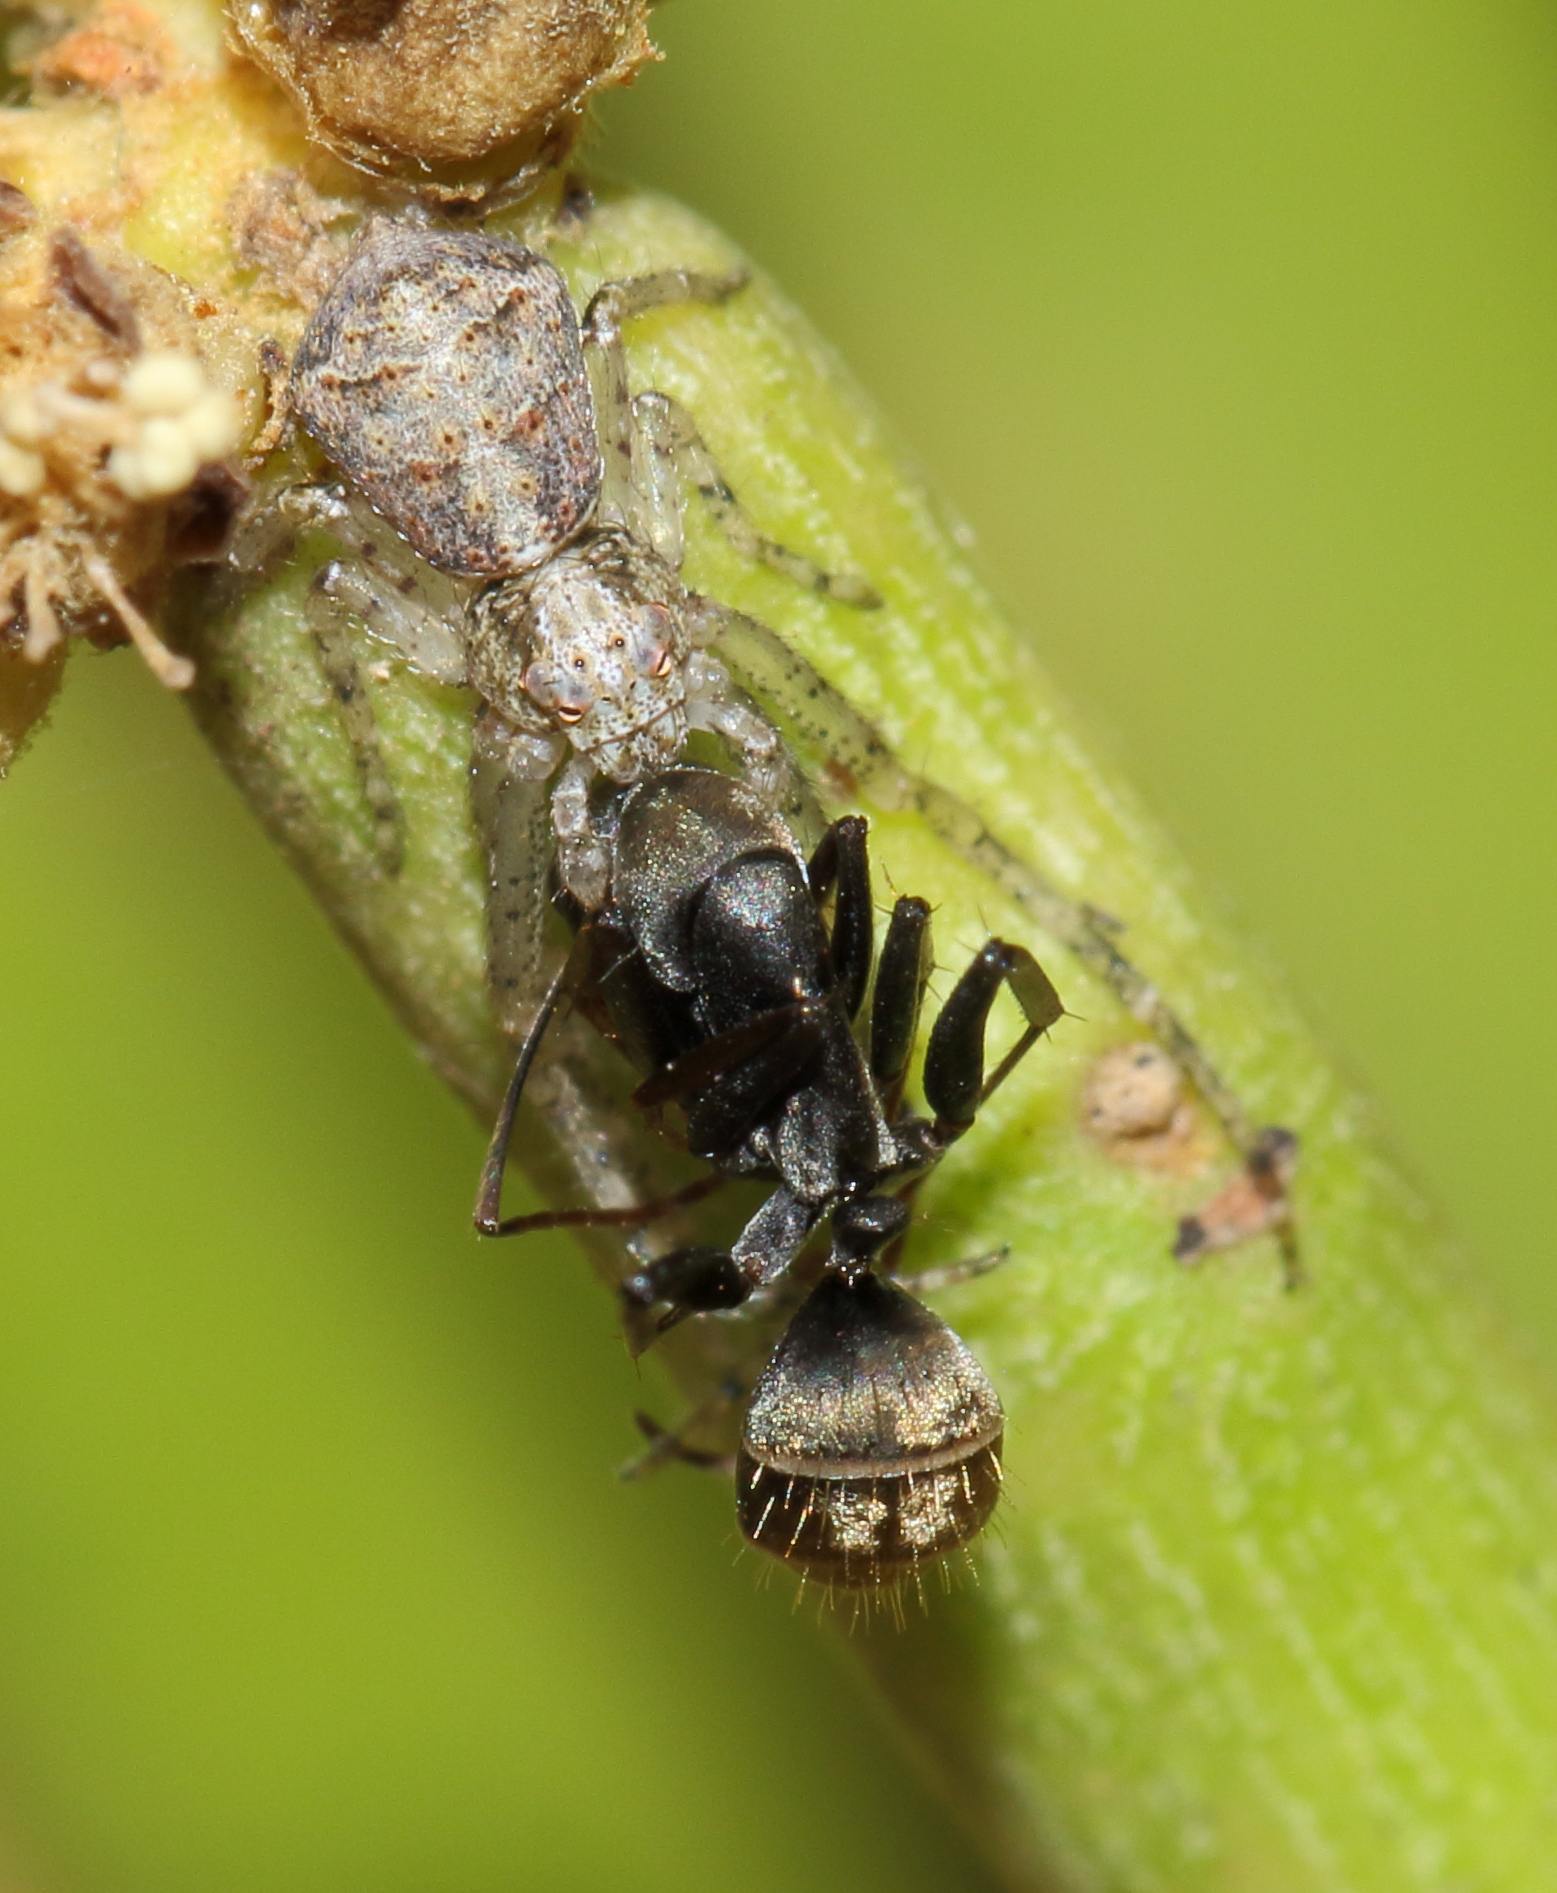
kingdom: Animalia
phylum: Arthropoda
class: Insecta
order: Hymenoptera
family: Formicidae
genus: Camponotus
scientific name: Camponotus cinctellus
